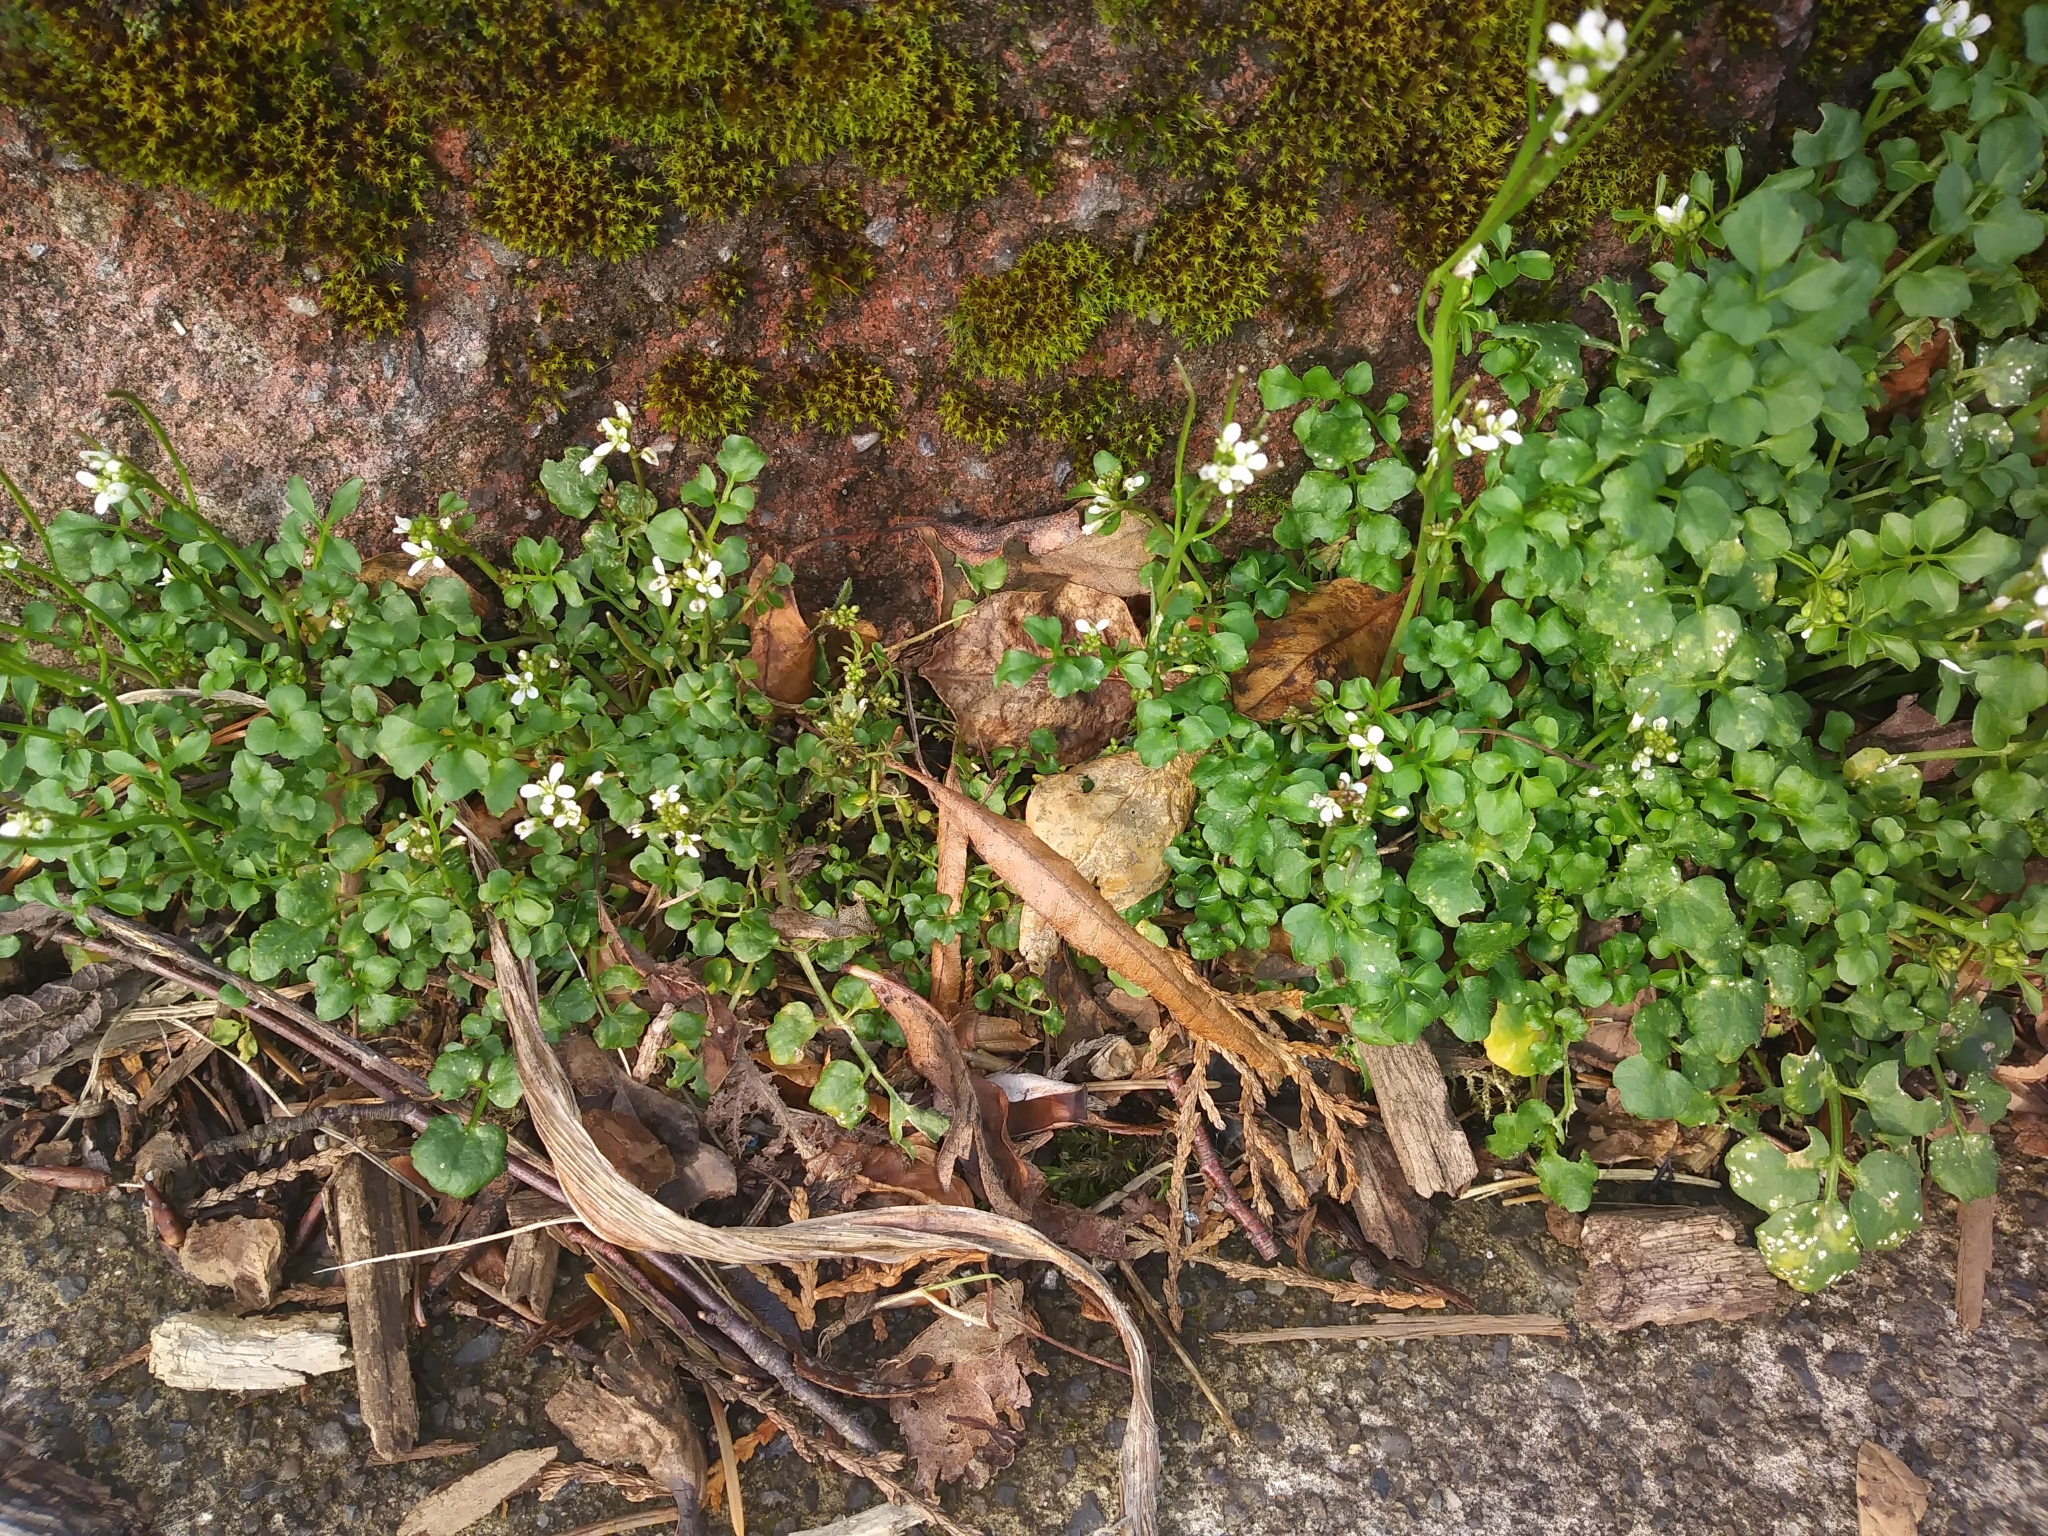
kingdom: Plantae
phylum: Tracheophyta
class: Magnoliopsida
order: Brassicales
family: Brassicaceae
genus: Cardamine
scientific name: Cardamine hirsuta
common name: Hairy bittercress
